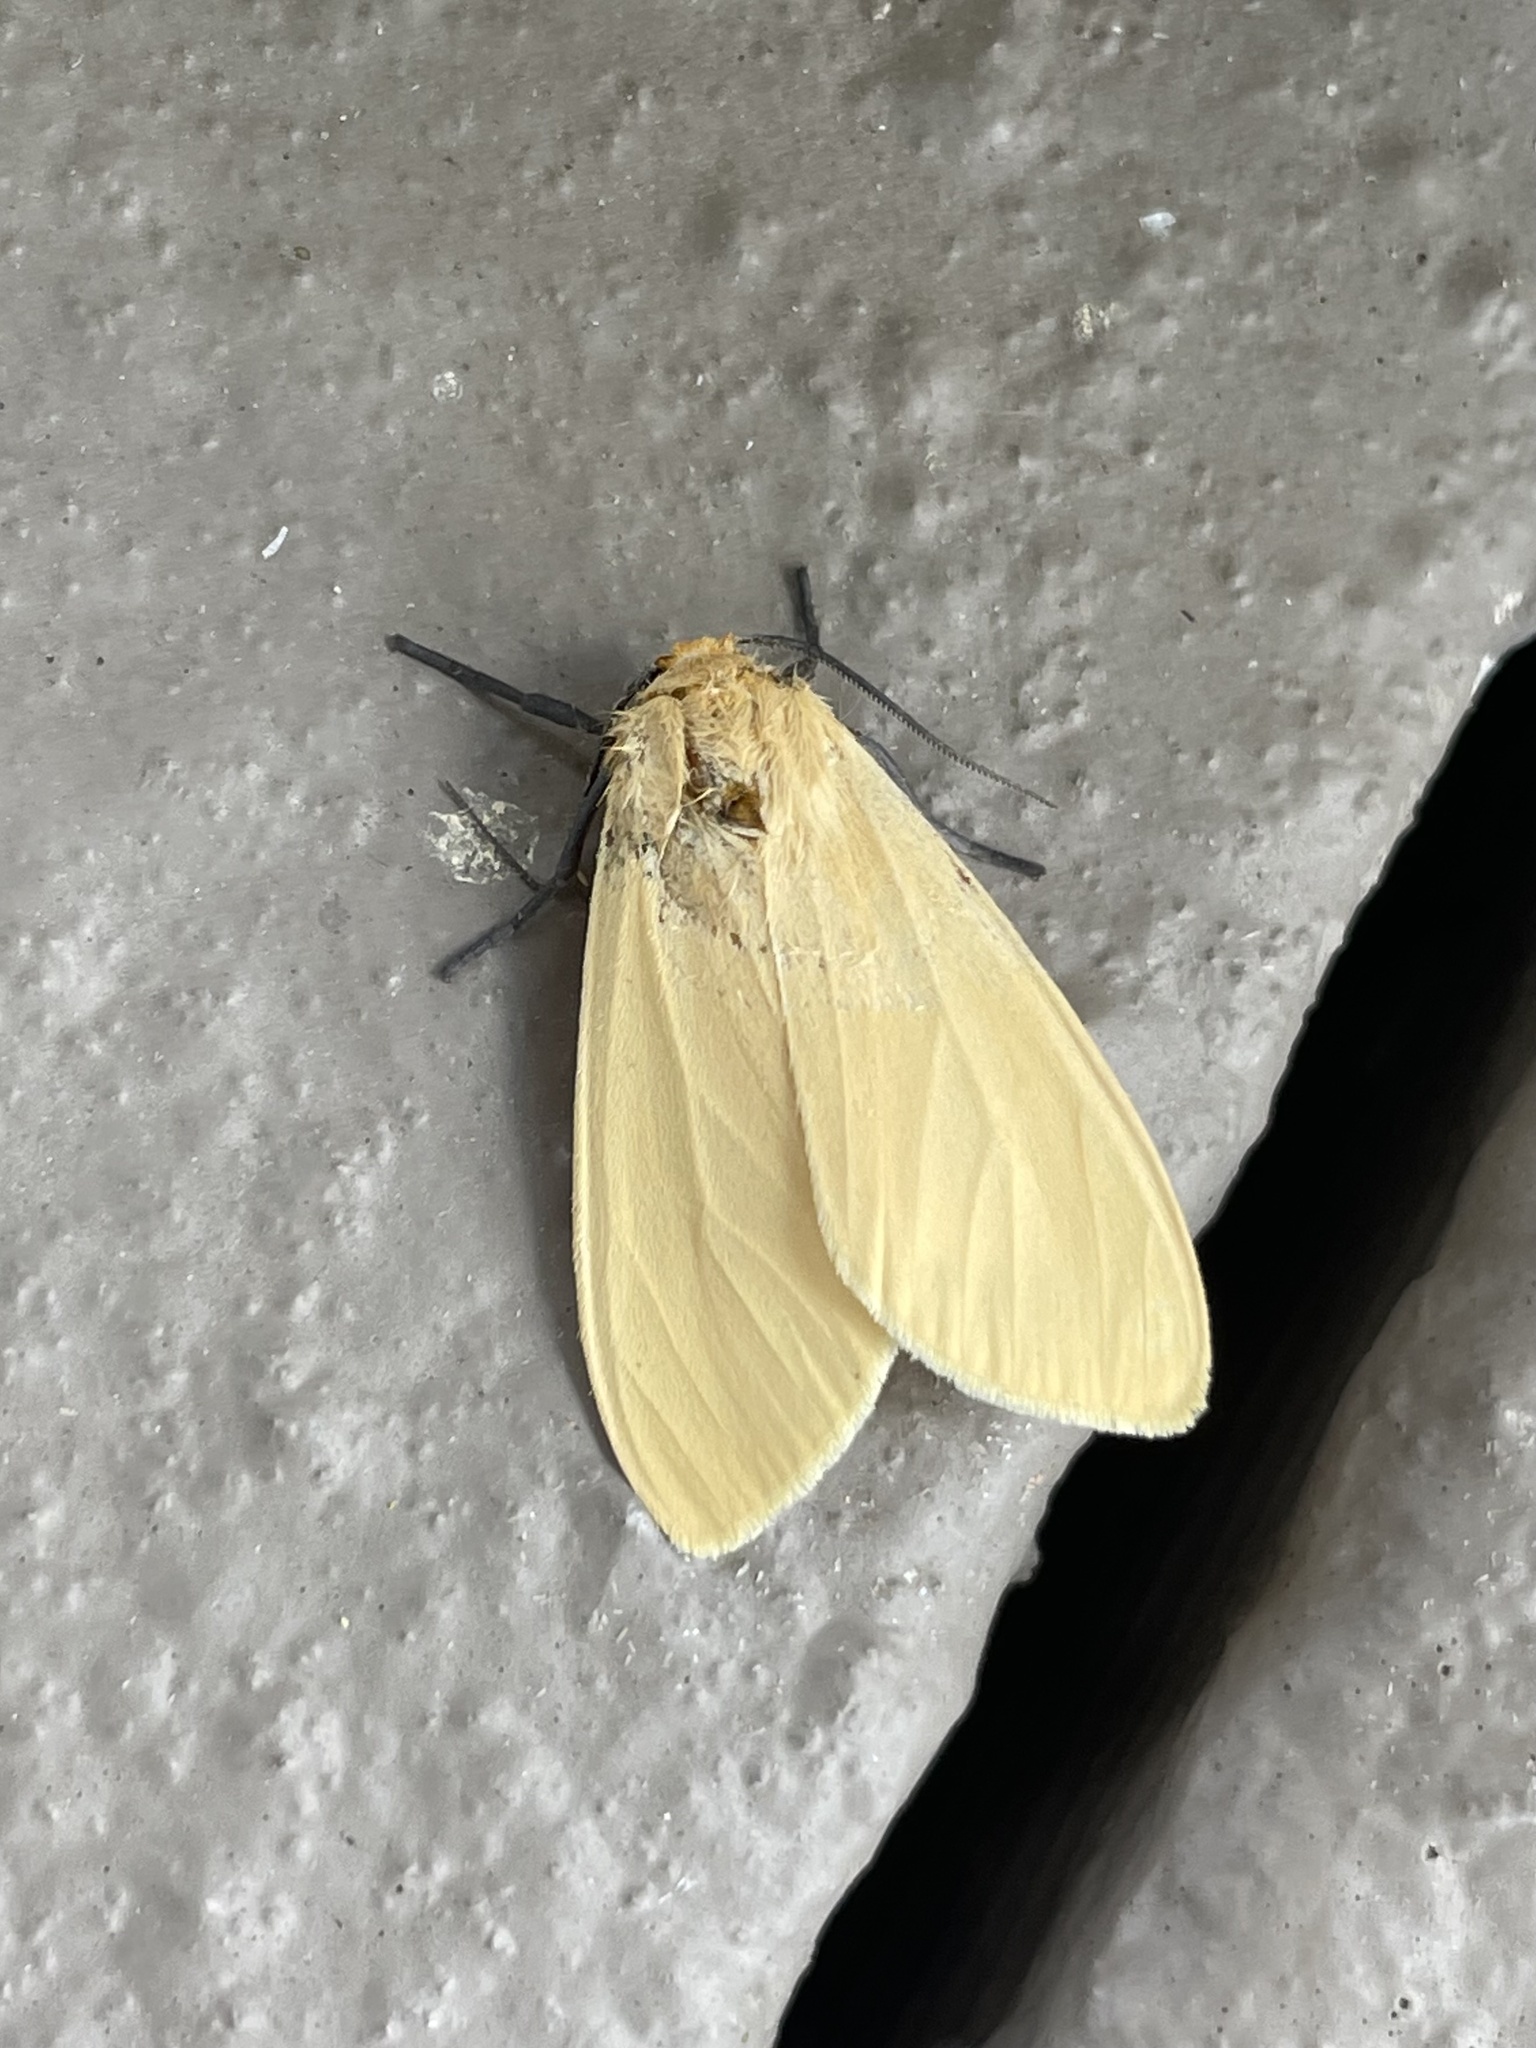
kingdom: Animalia
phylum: Arthropoda
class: Insecta
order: Lepidoptera
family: Erebidae
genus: Pareuchaetes
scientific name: Pareuchaetes insulata
